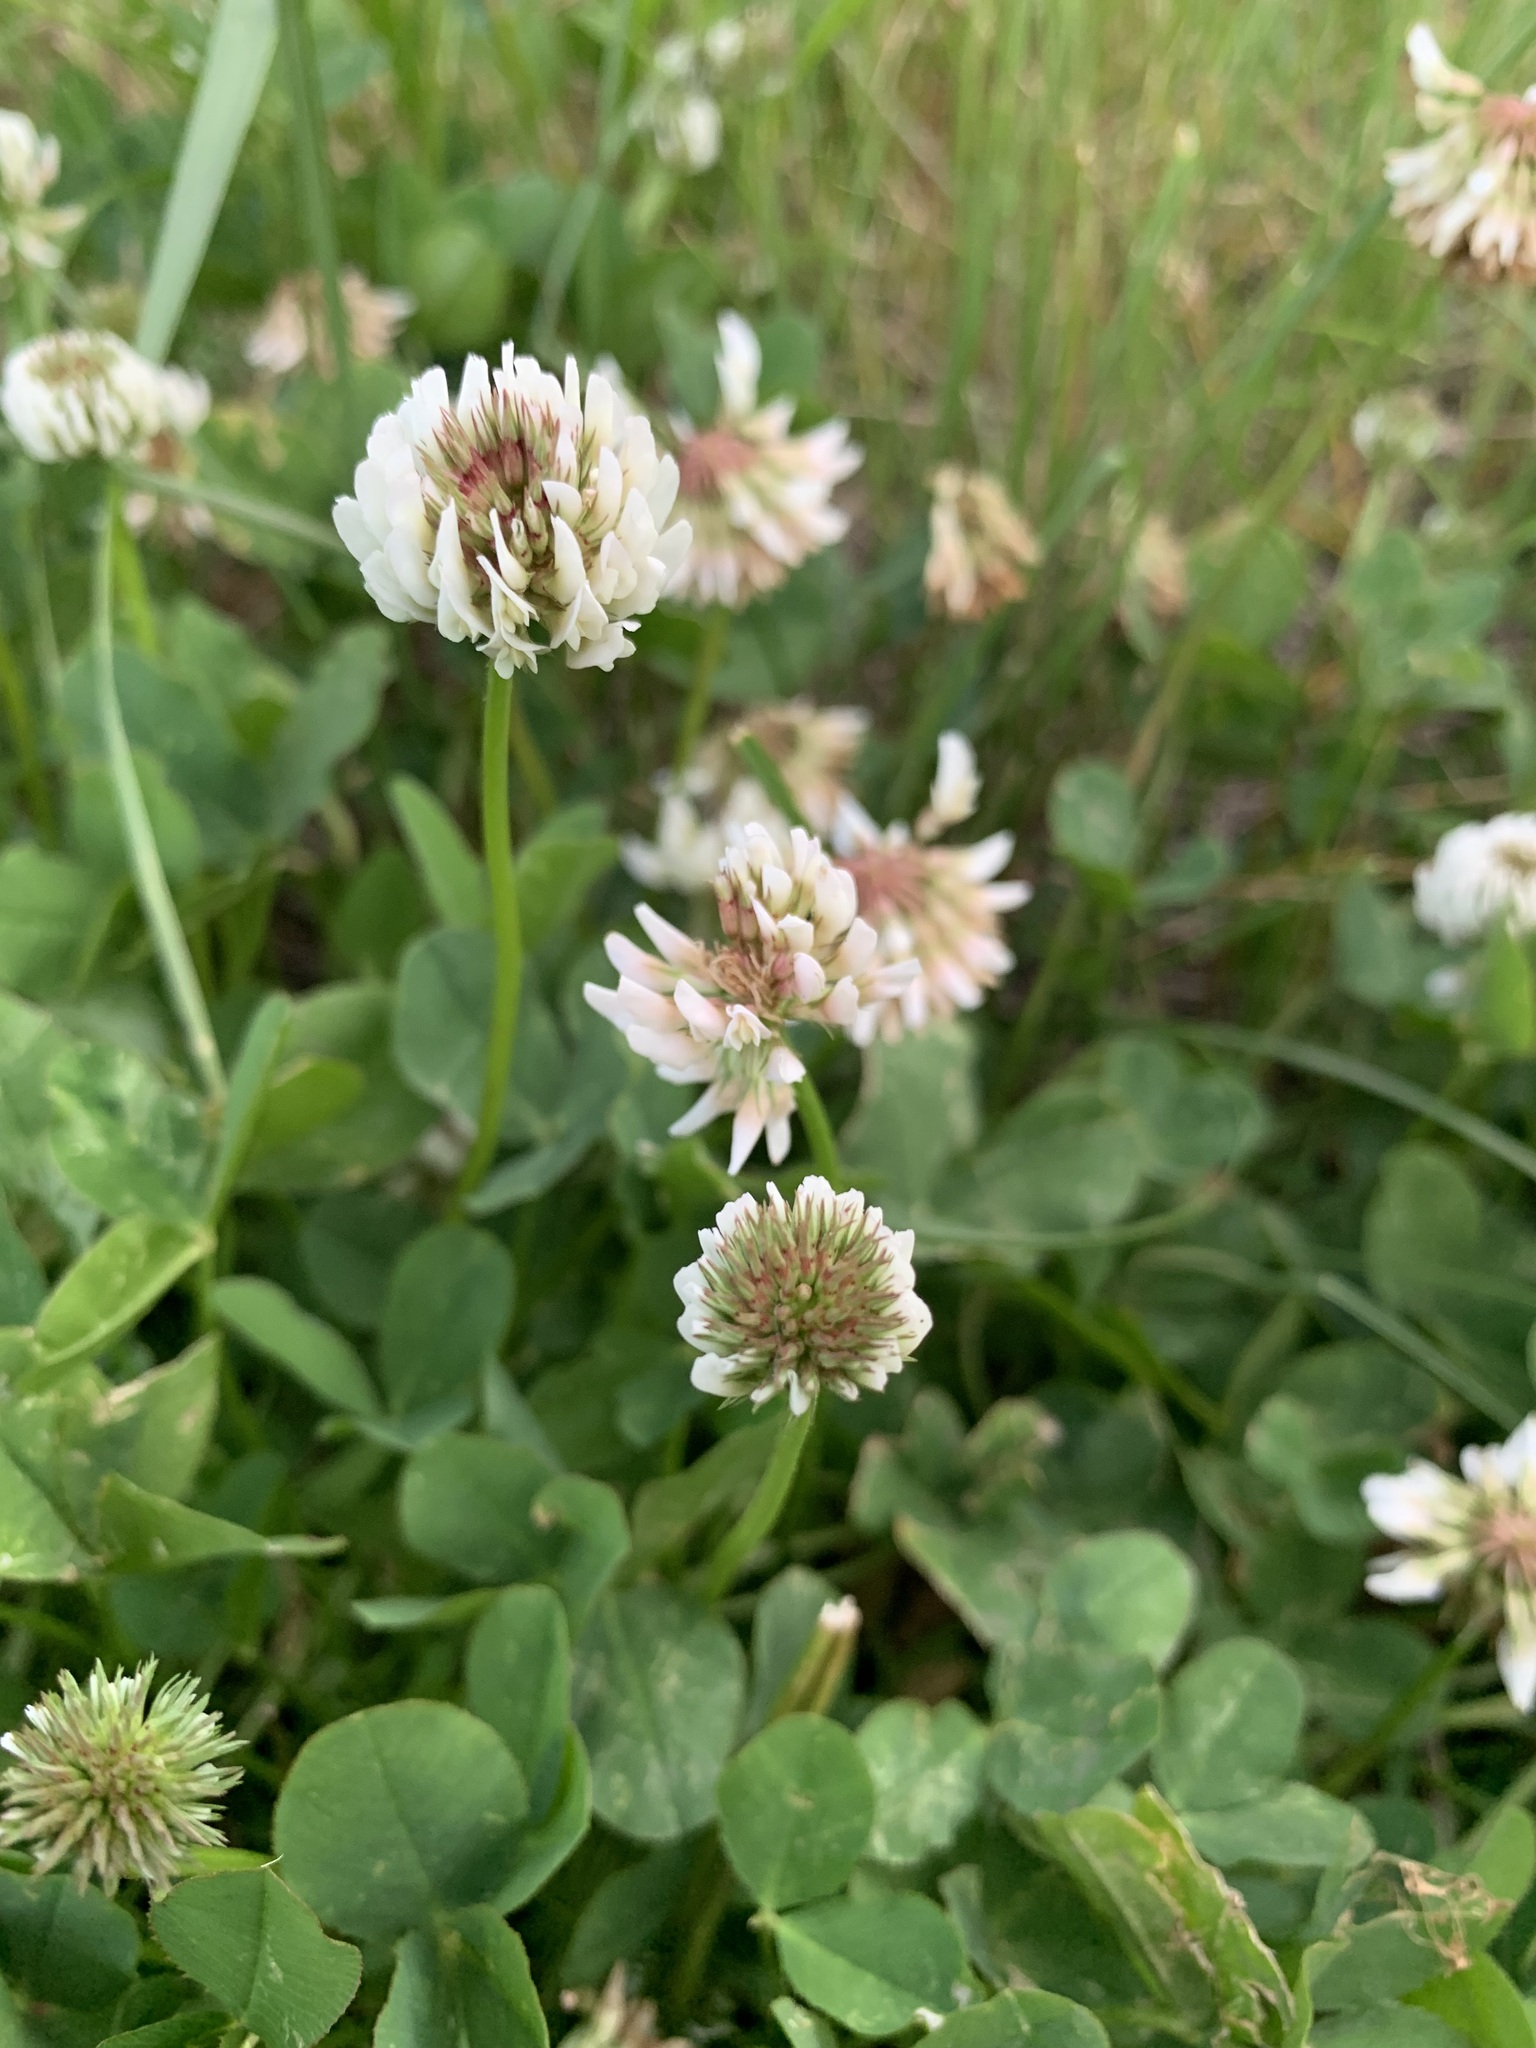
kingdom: Plantae
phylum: Tracheophyta
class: Magnoliopsida
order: Fabales
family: Fabaceae
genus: Trifolium
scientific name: Trifolium repens
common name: White clover
